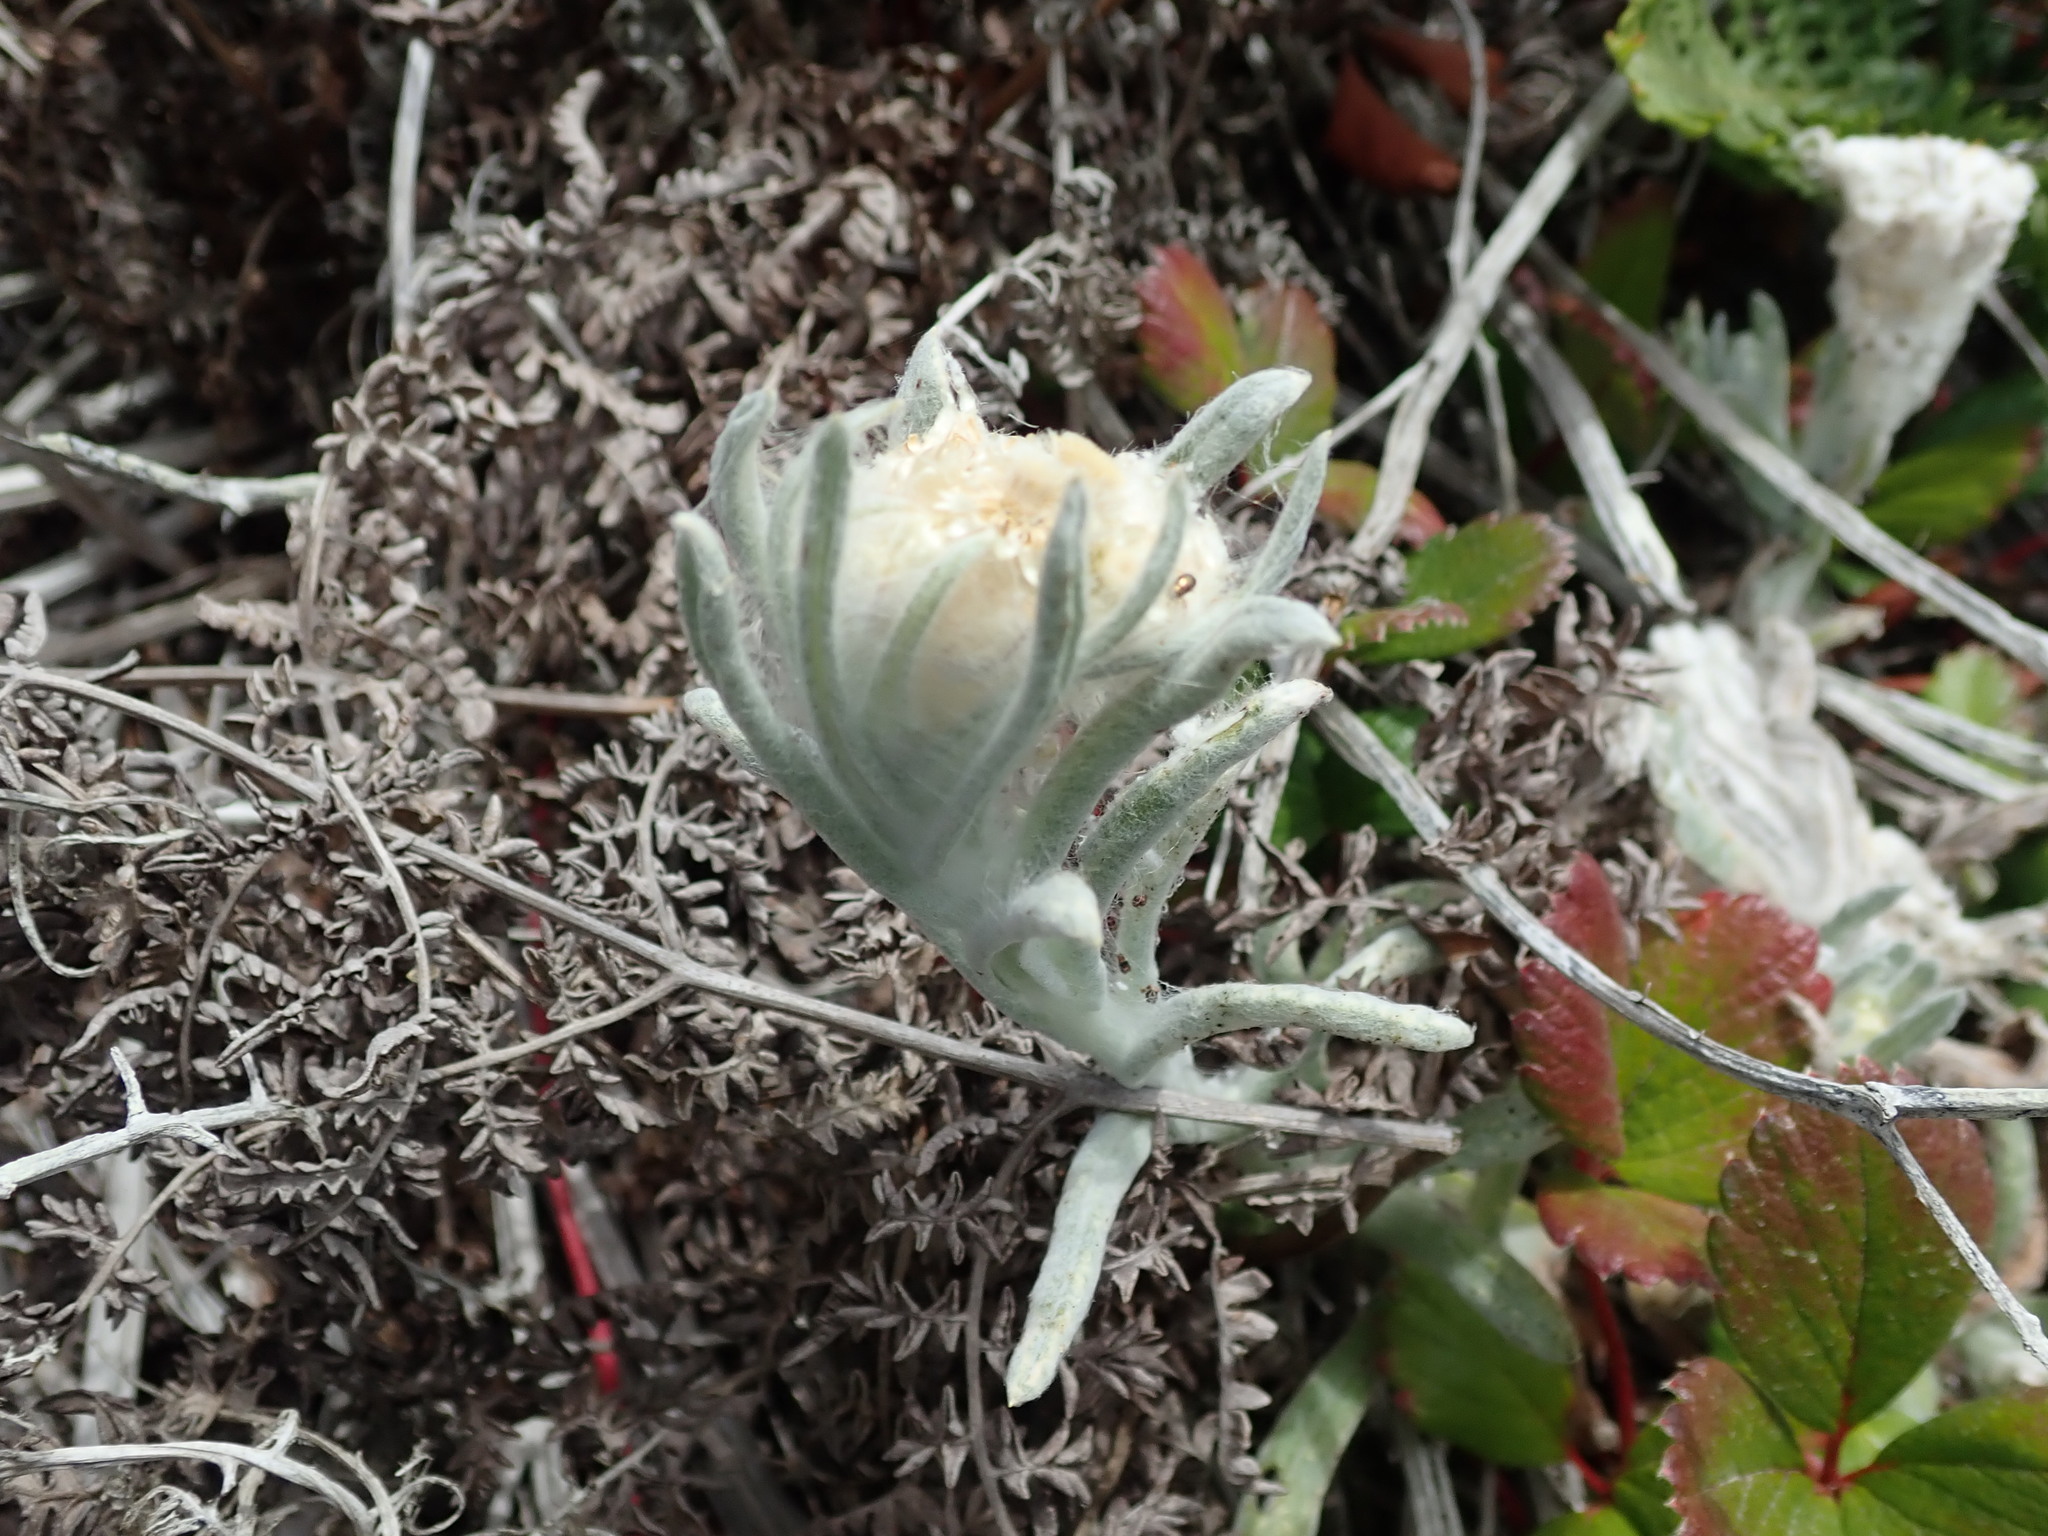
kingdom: Plantae
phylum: Tracheophyta
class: Magnoliopsida
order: Asterales
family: Asteraceae
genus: Pseudognaphalium
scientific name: Pseudognaphalium stramineum
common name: Cotton-batting-plant
